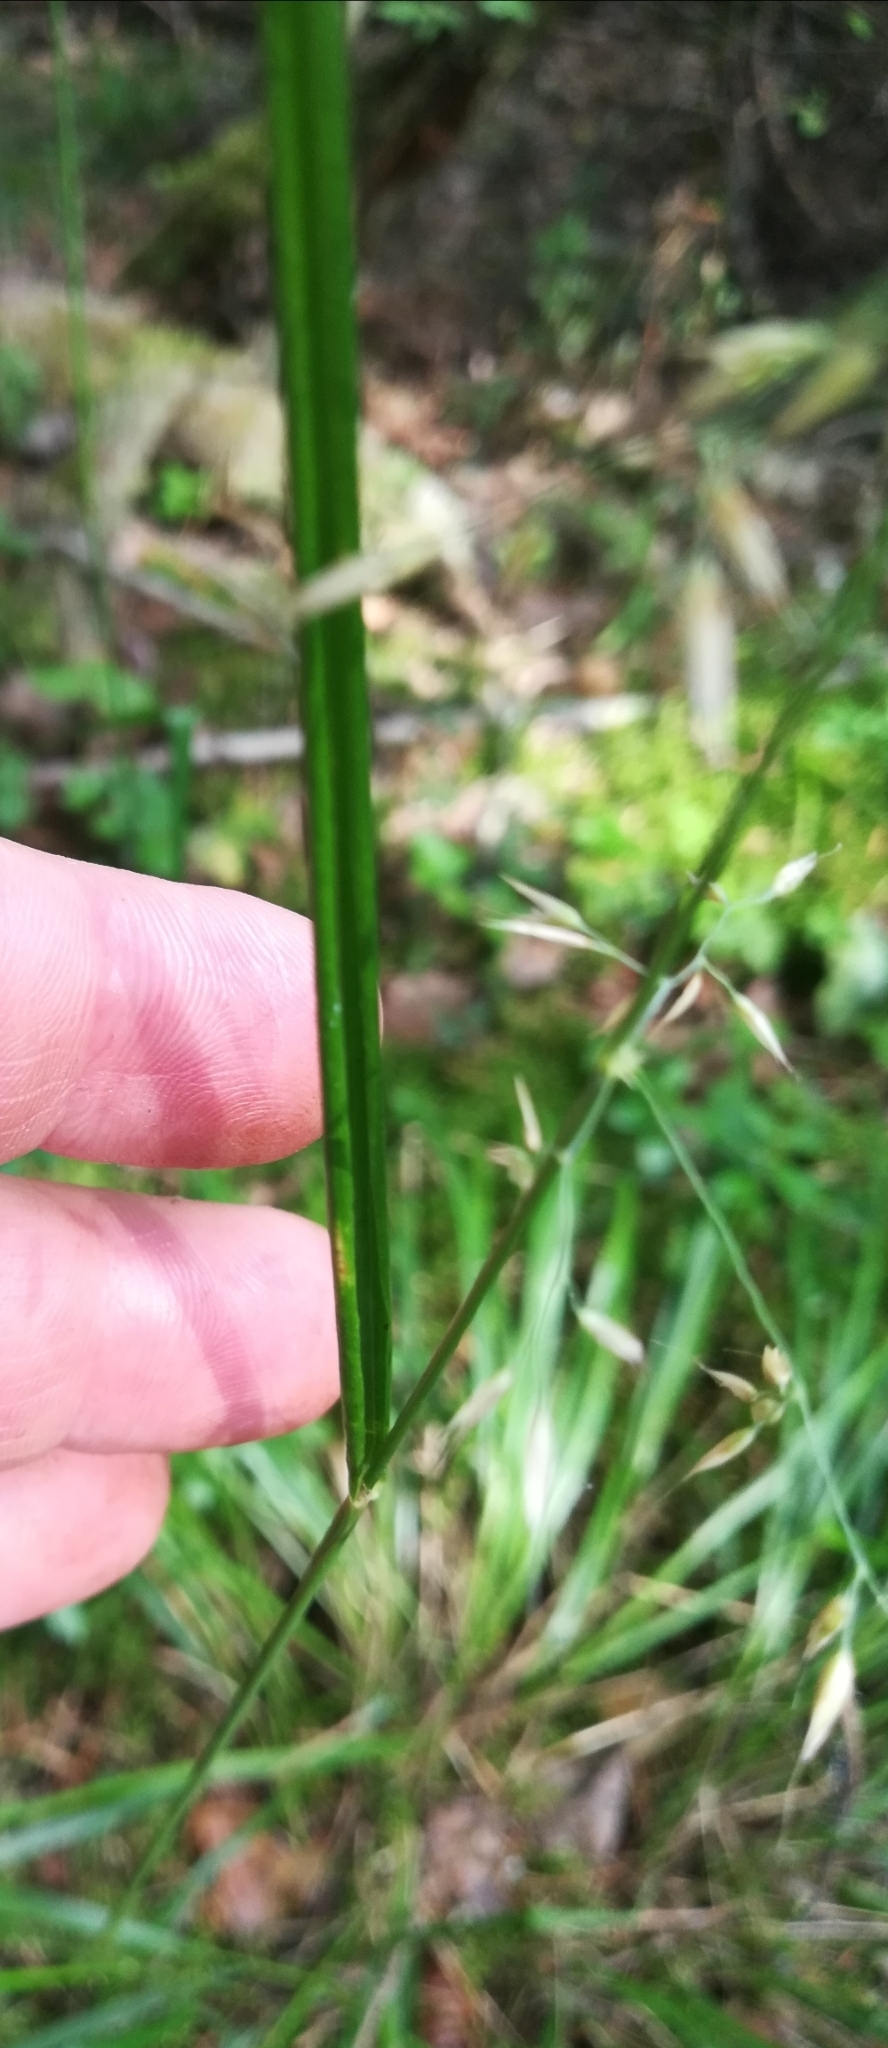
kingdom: Plantae
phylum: Tracheophyta
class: Liliopsida
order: Poales
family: Poaceae
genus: Calamagrostis
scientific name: Calamagrostis arundinacea
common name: Metskastik
